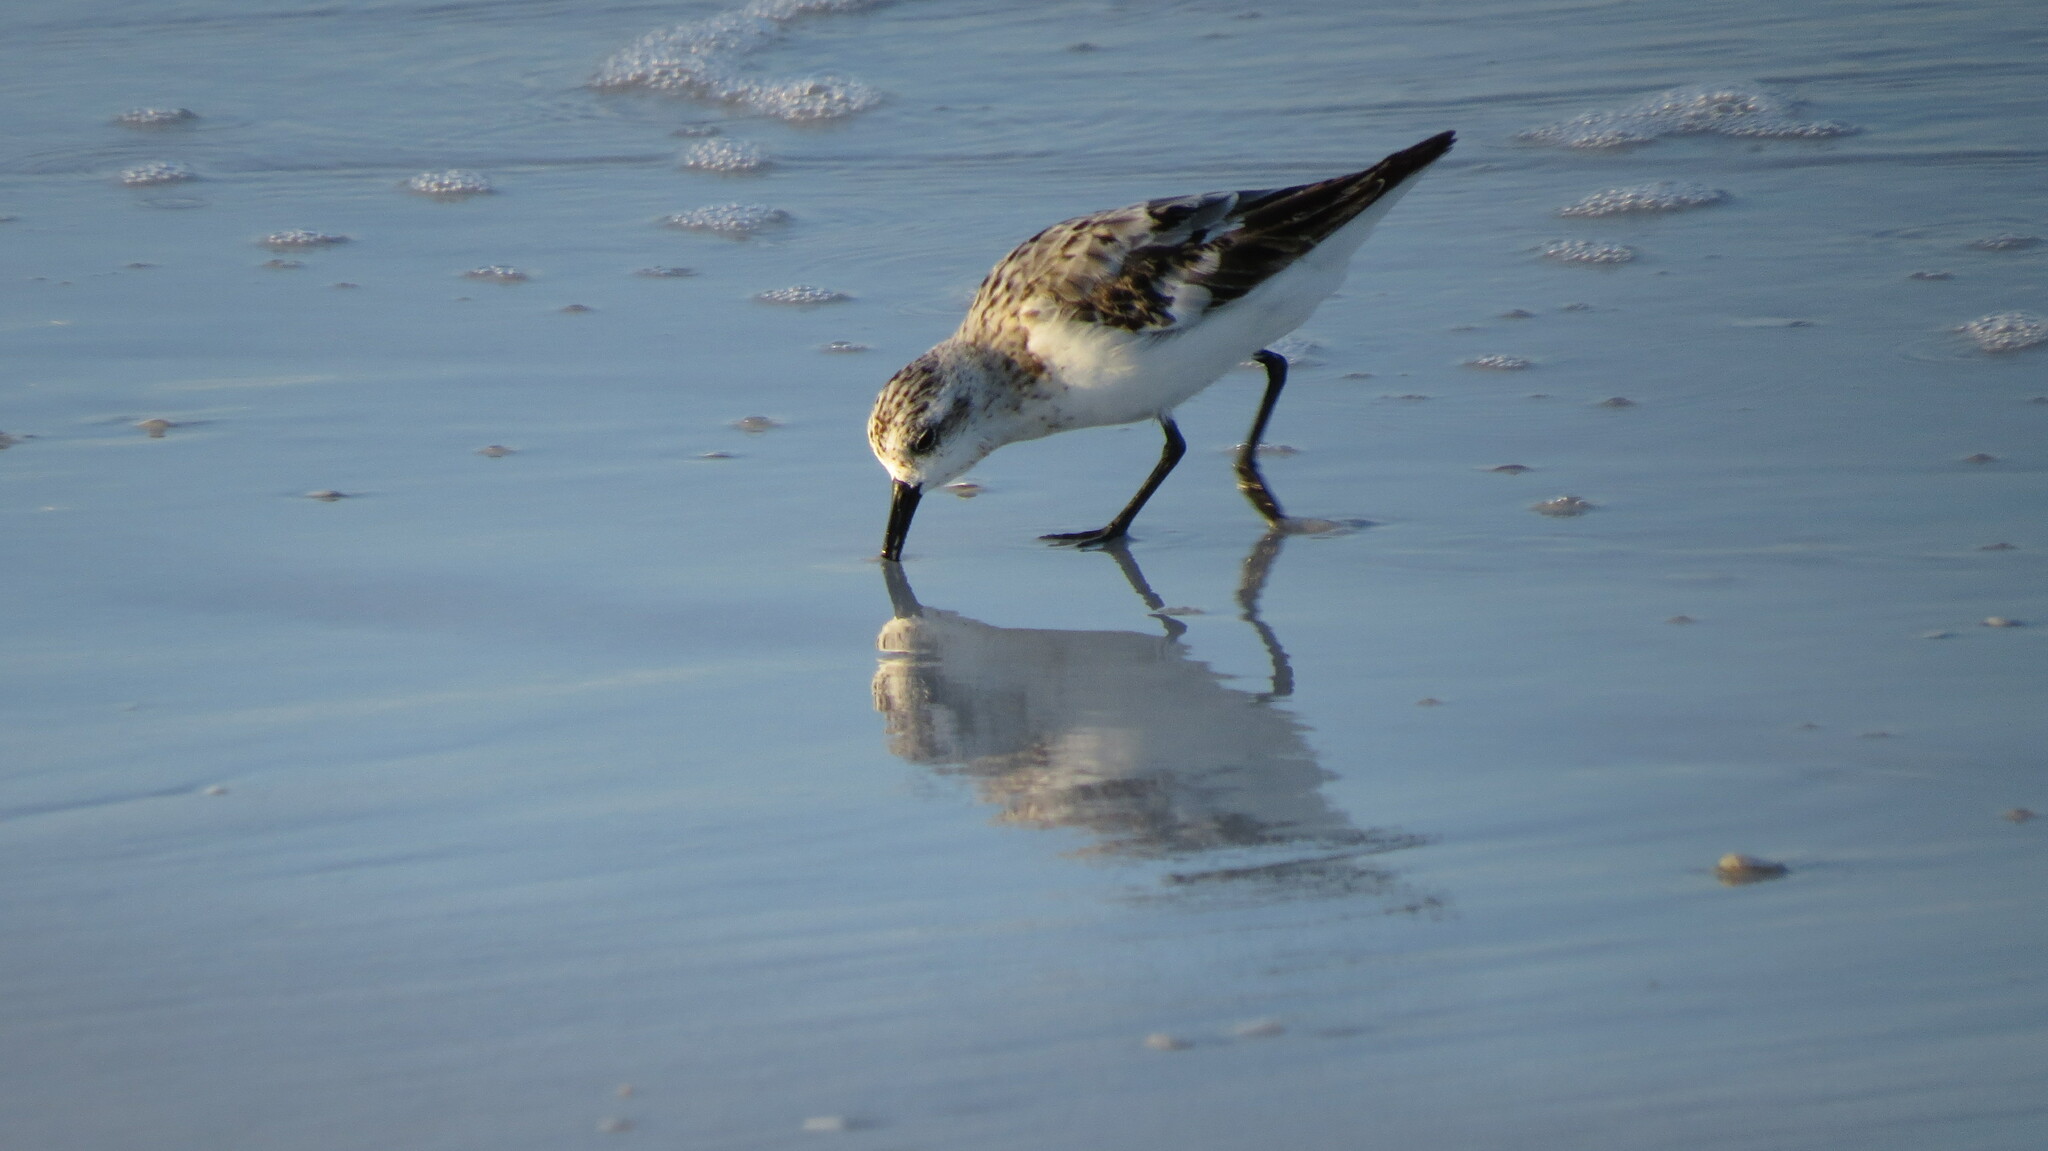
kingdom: Animalia
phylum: Chordata
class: Aves
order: Charadriiformes
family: Scolopacidae
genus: Calidris
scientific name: Calidris alba
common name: Sanderling
